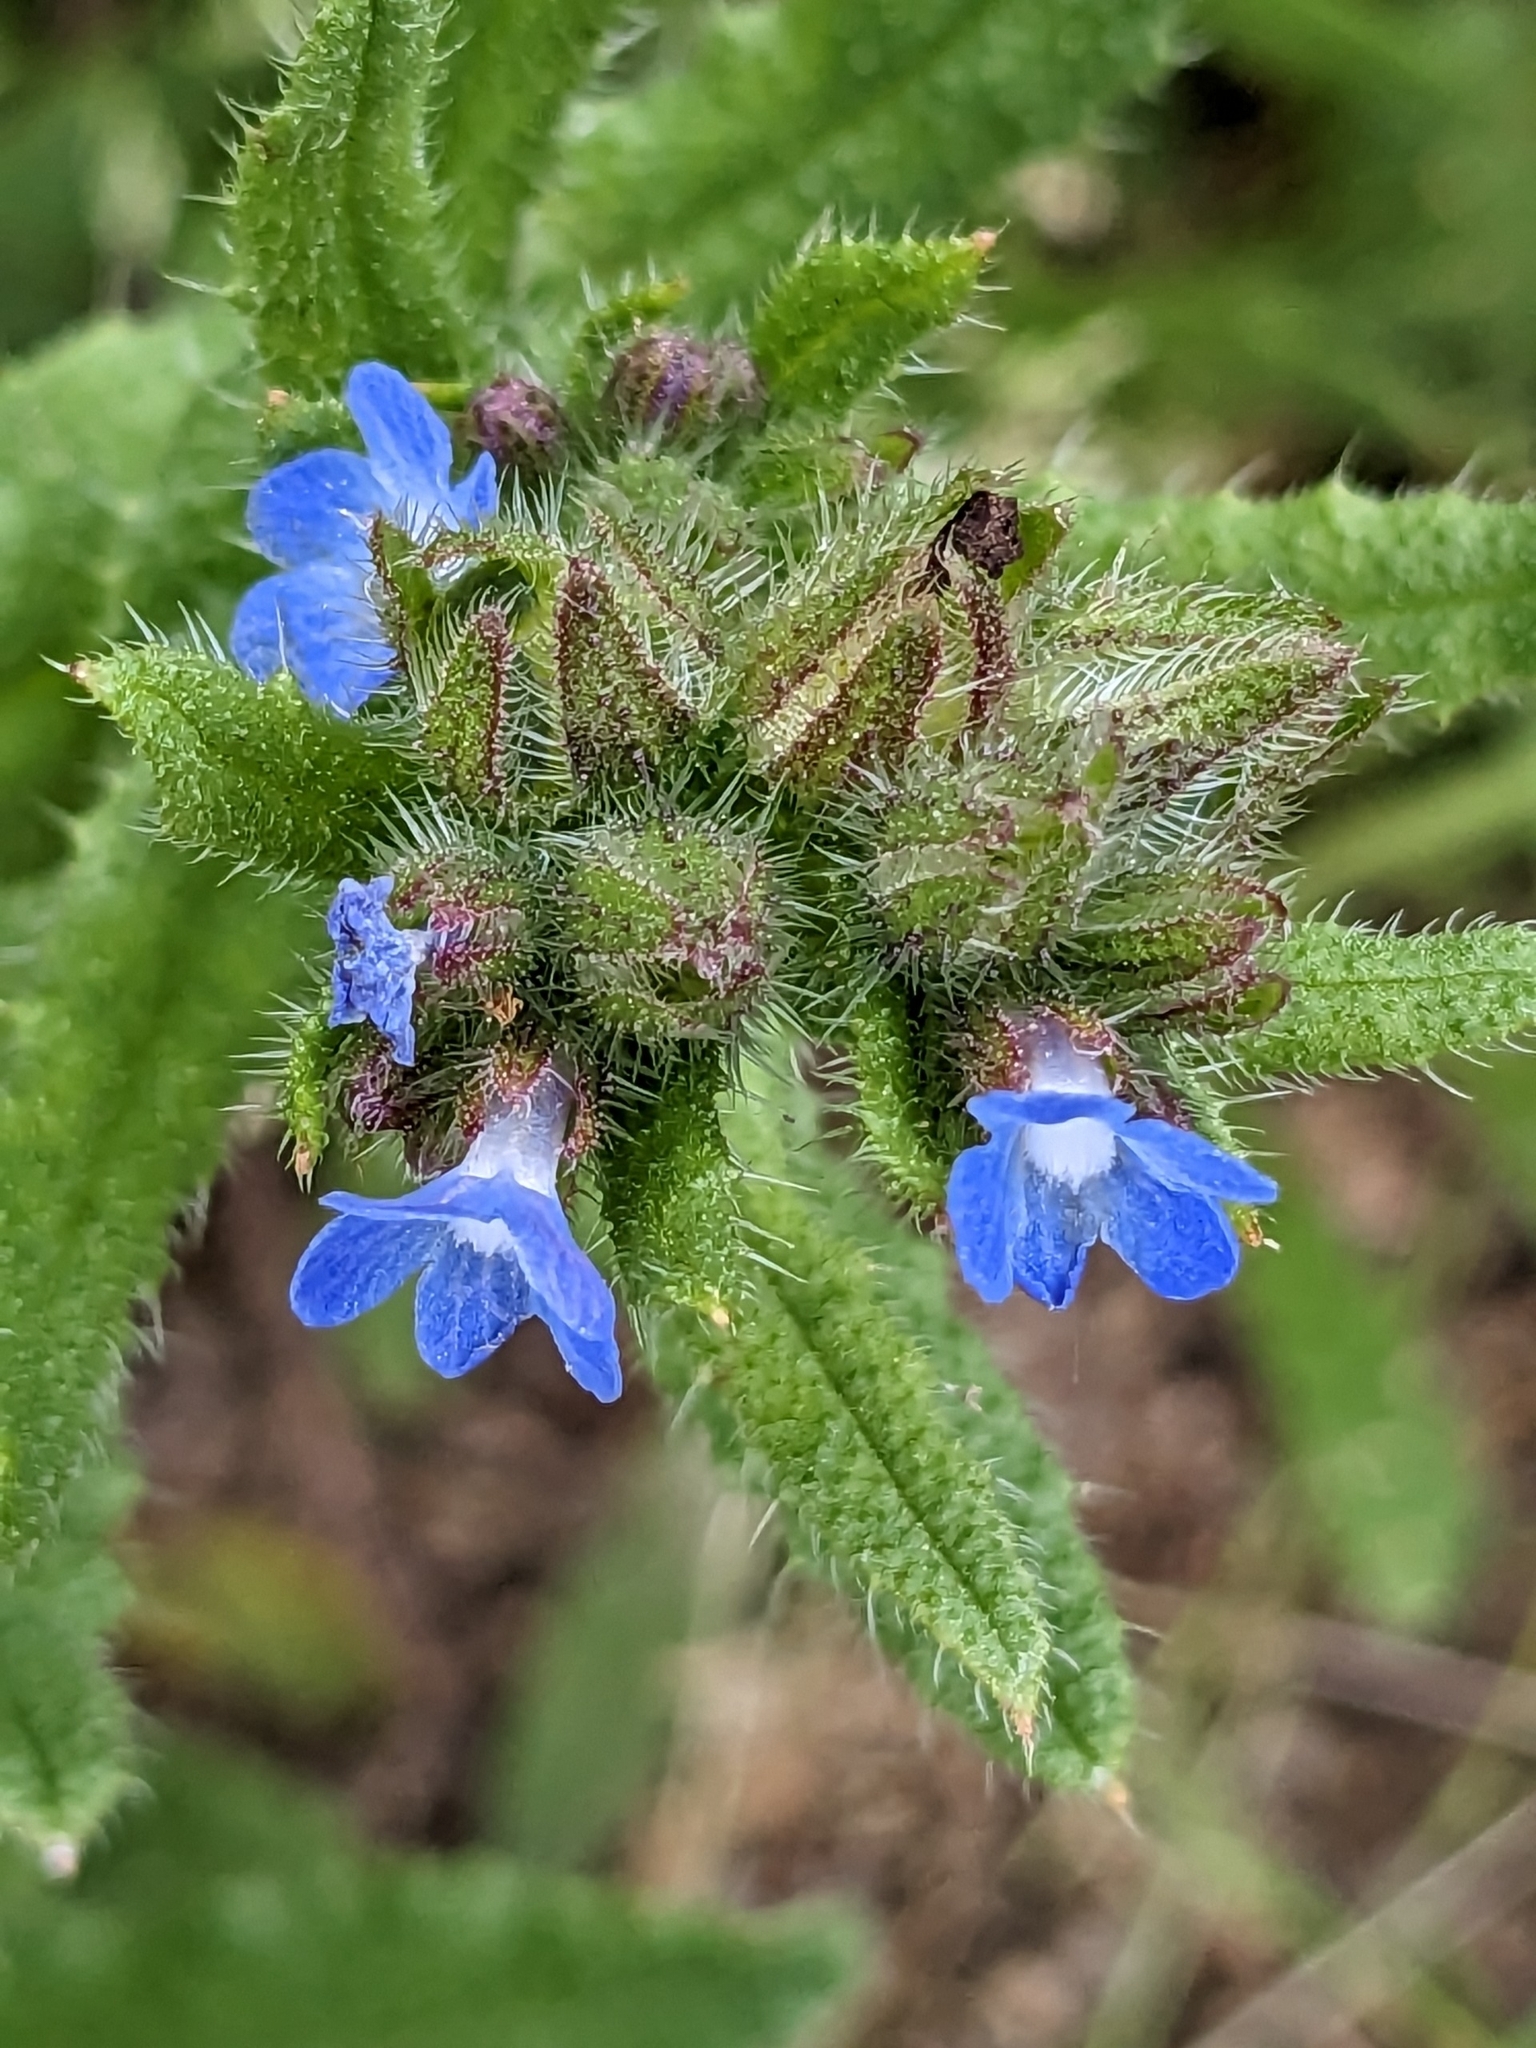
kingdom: Plantae
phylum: Tracheophyta
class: Magnoliopsida
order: Boraginales
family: Boraginaceae
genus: Lycopsis
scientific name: Lycopsis arvensis
